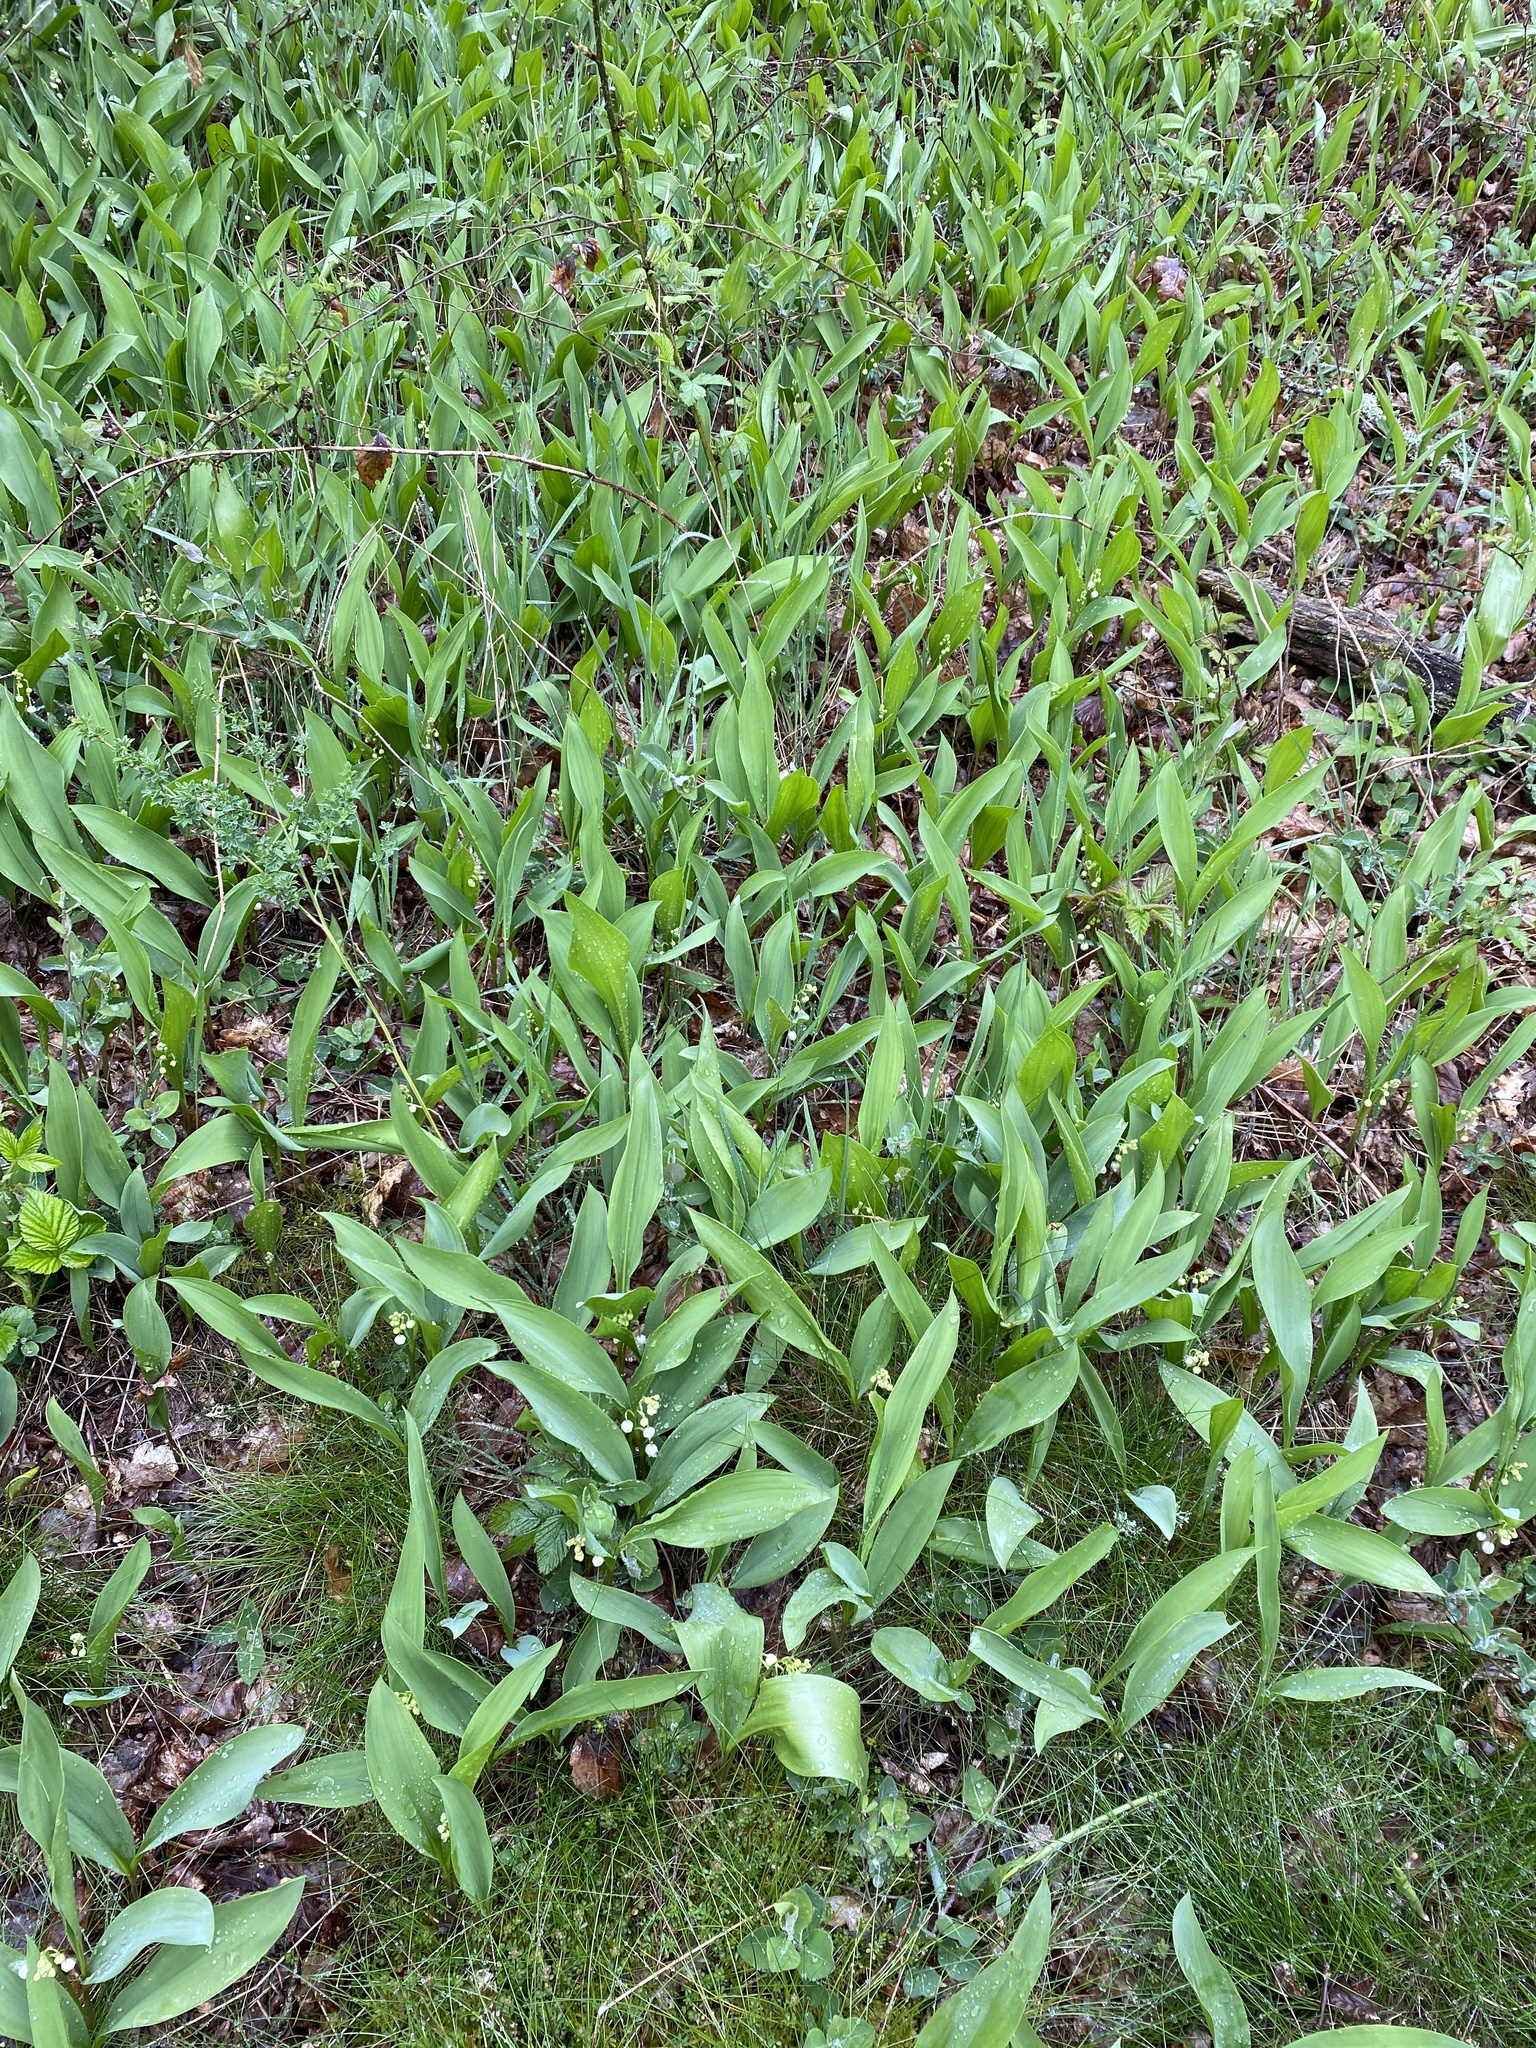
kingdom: Plantae
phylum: Tracheophyta
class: Liliopsida
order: Asparagales
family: Asparagaceae
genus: Convallaria
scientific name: Convallaria majalis
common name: Lily-of-the-valley
